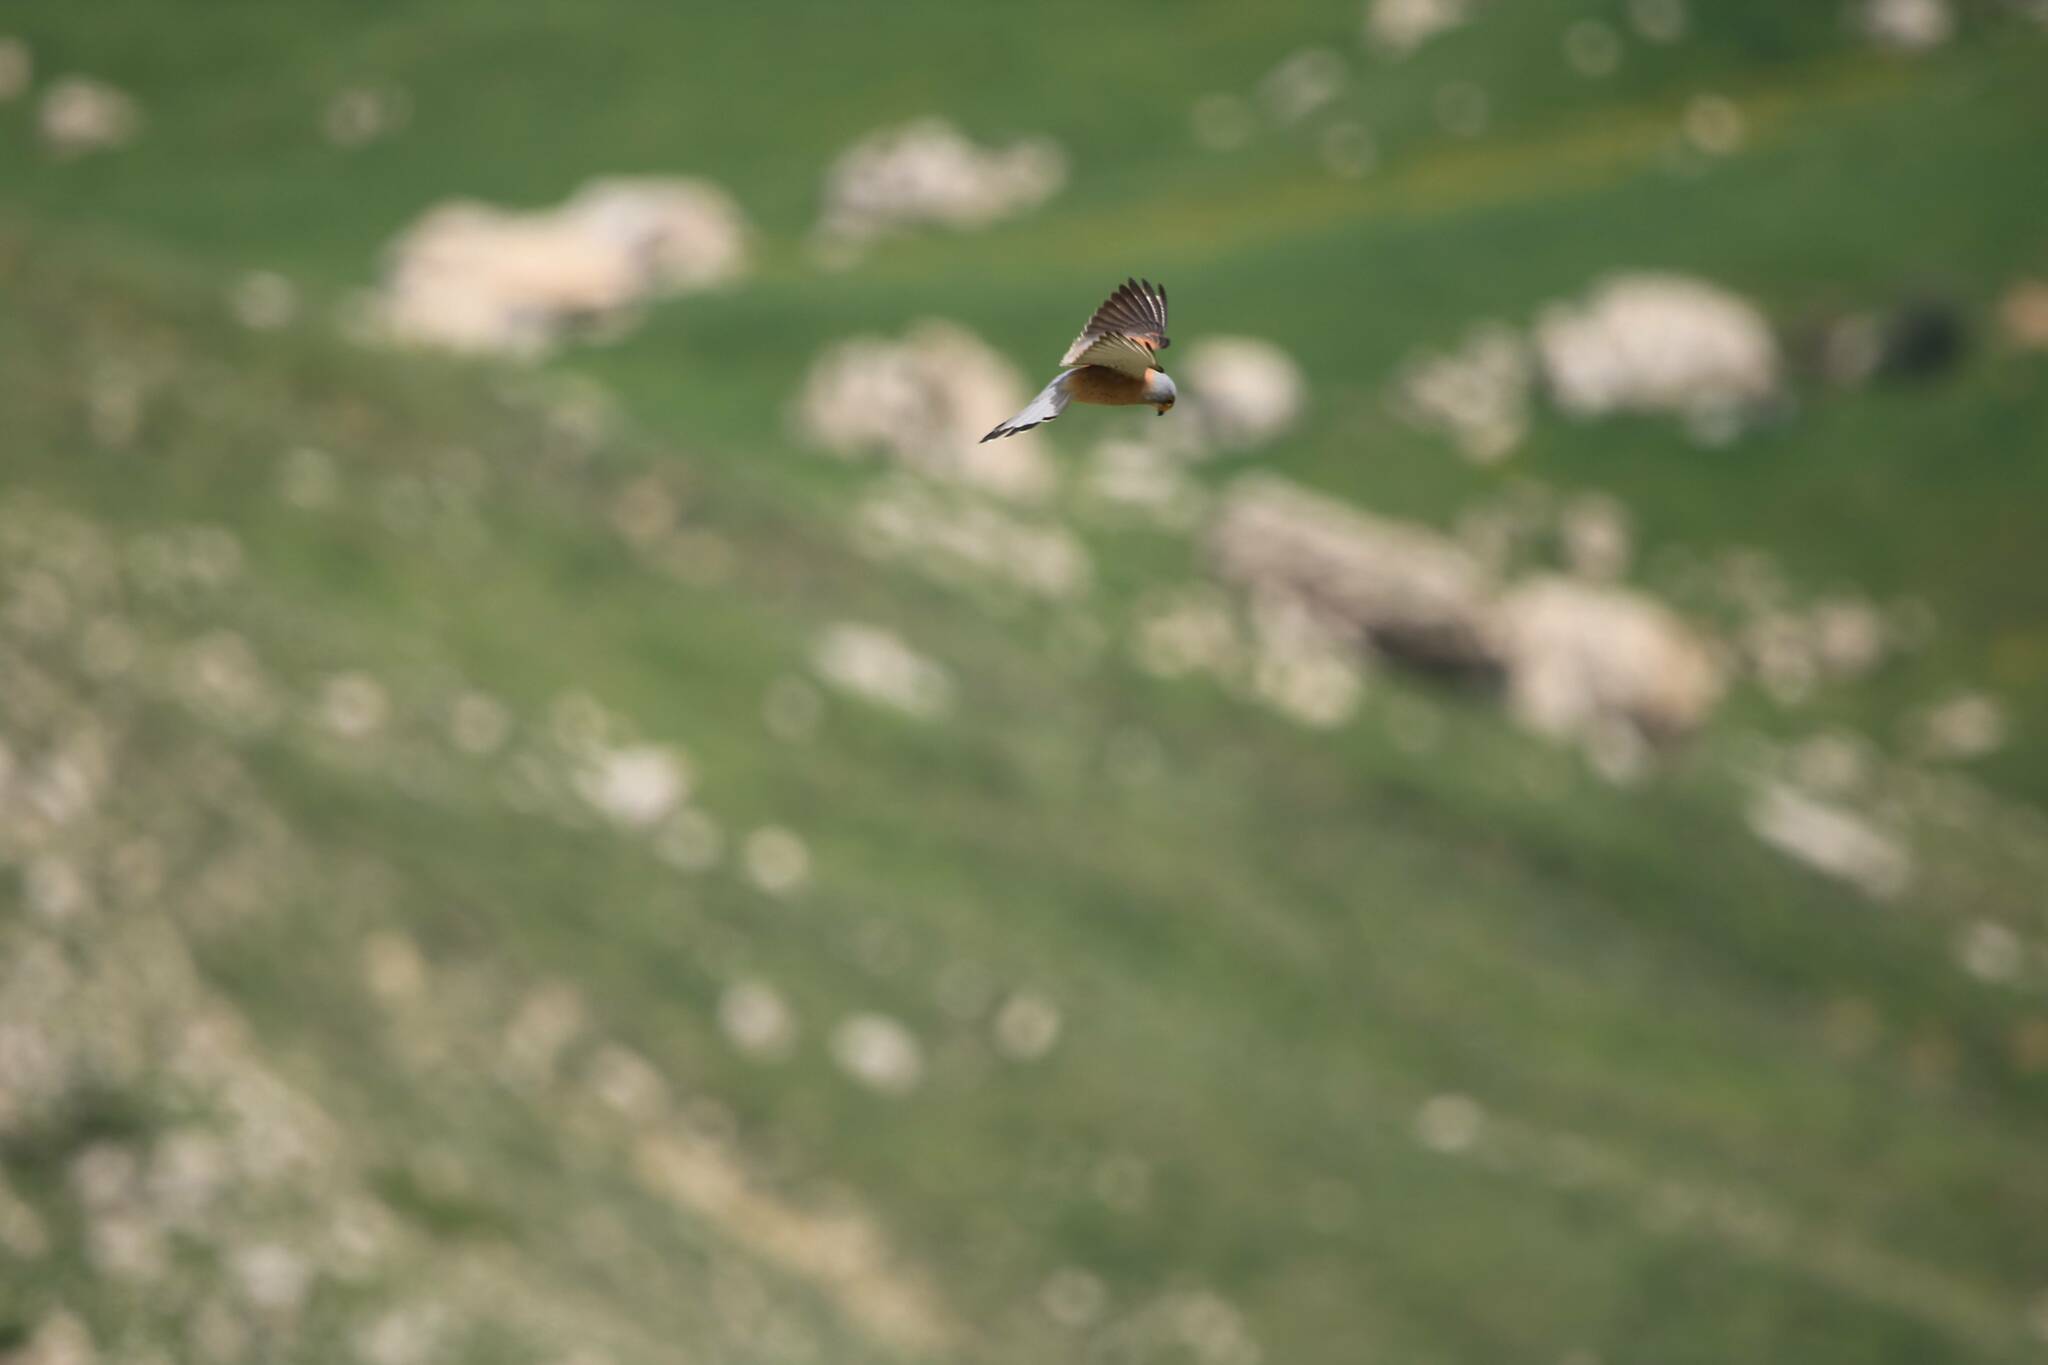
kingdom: Animalia
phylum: Chordata
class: Aves
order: Falconiformes
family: Falconidae
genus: Falco
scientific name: Falco naumanni
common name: Lesser kestrel
